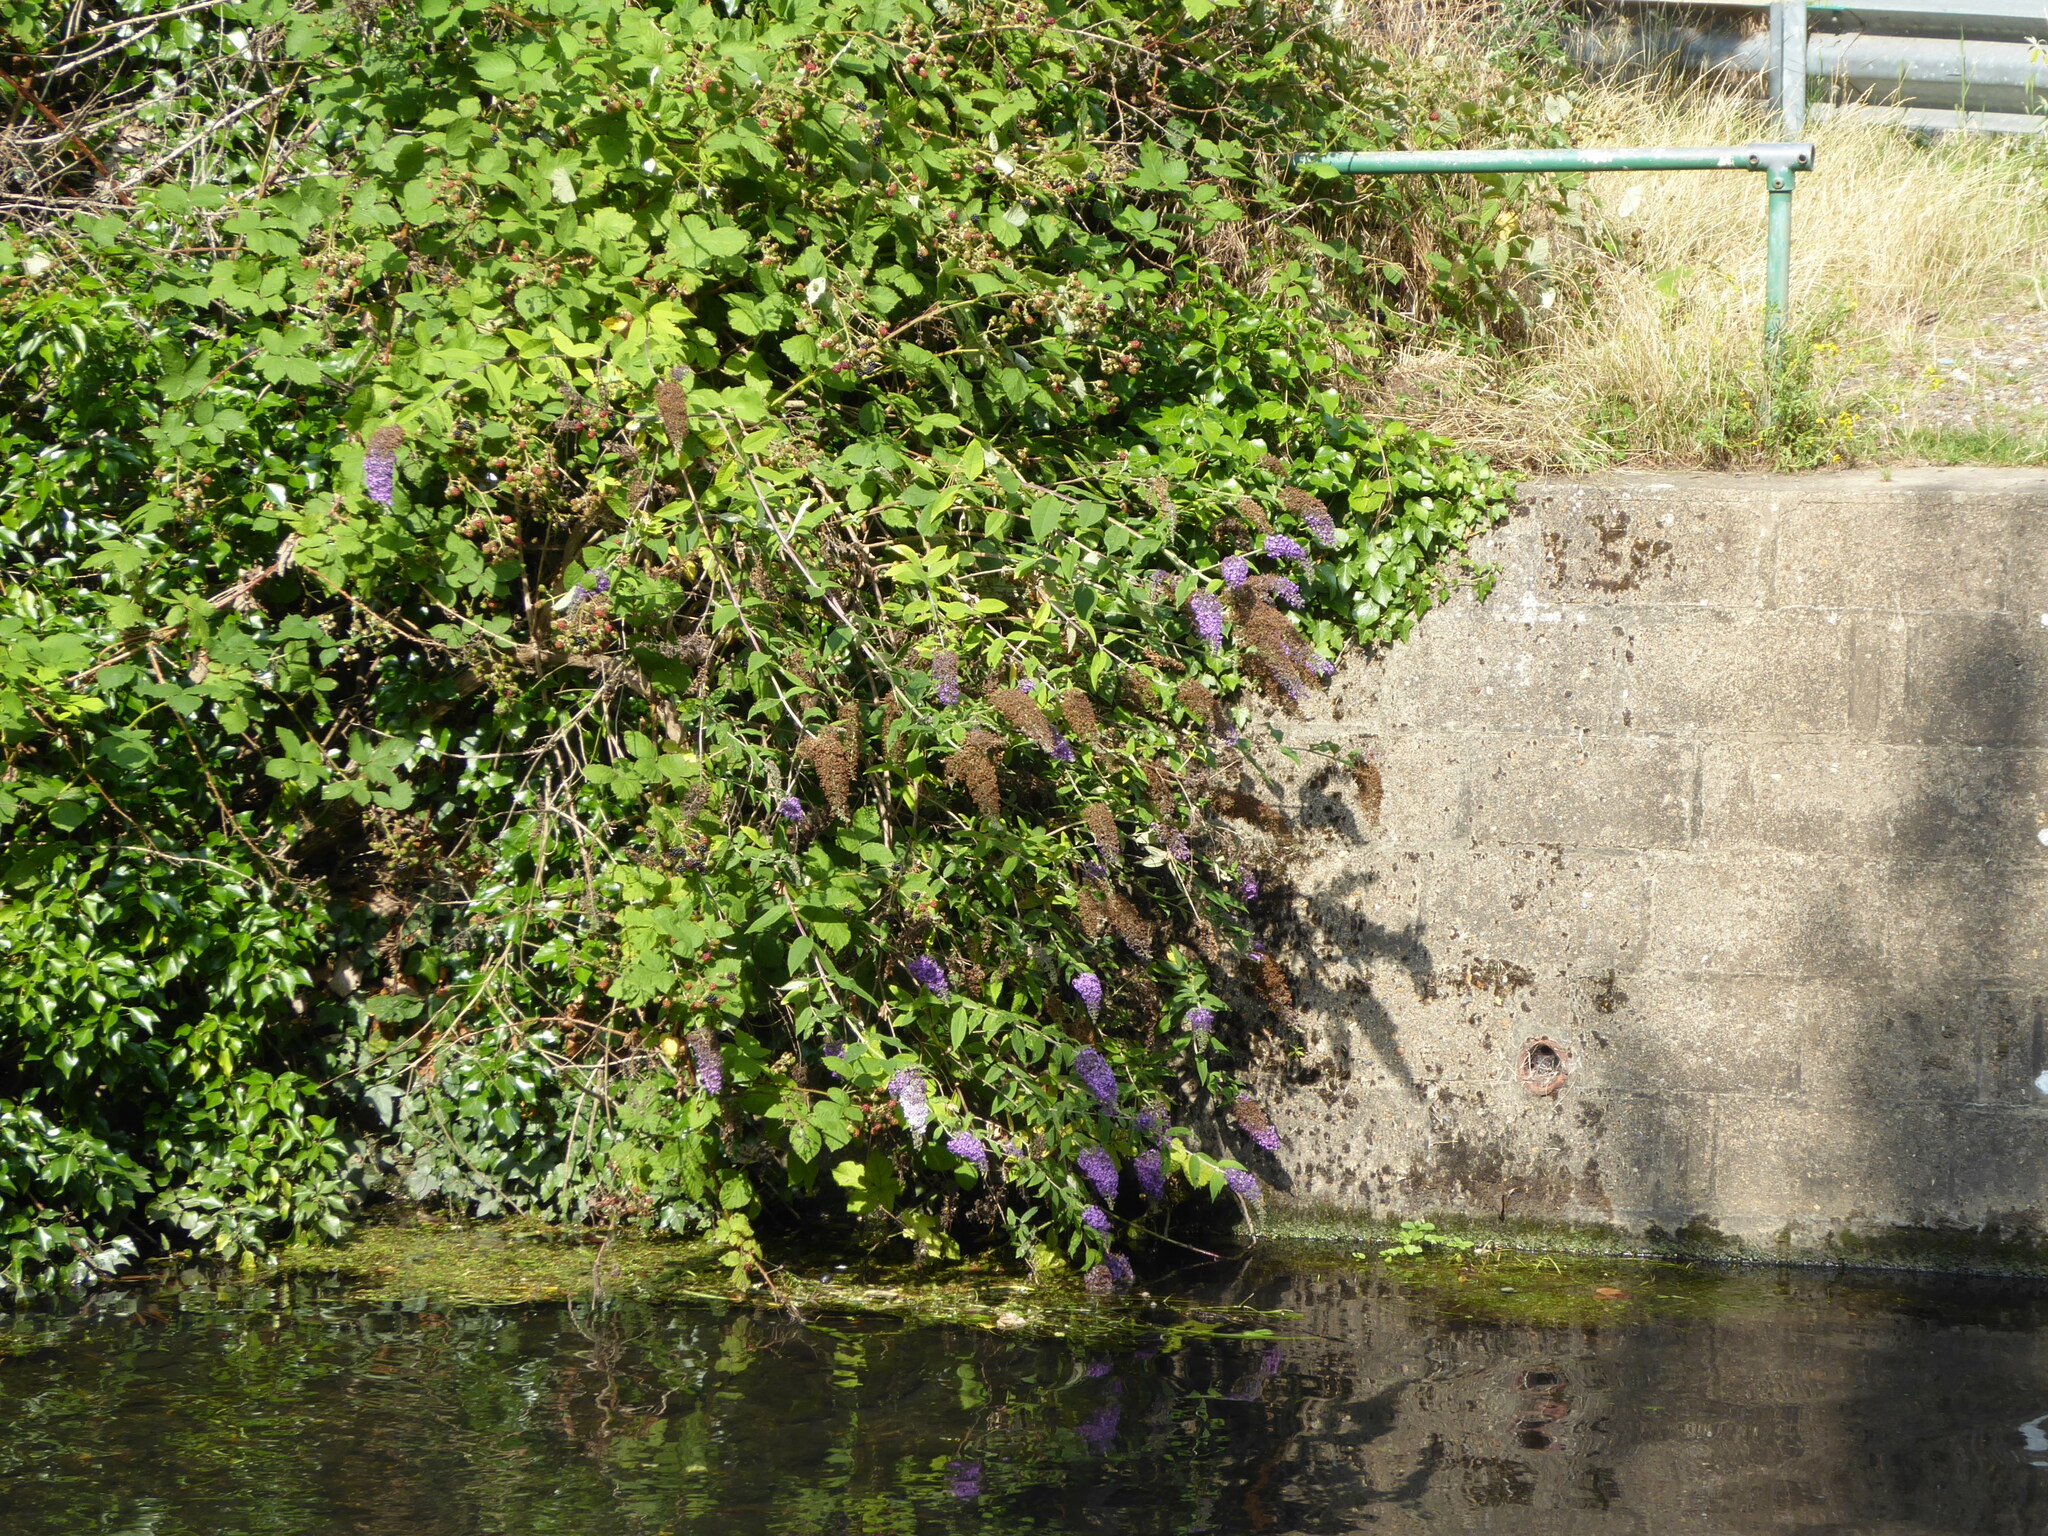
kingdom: Plantae
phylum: Tracheophyta
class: Magnoliopsida
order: Lamiales
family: Scrophulariaceae
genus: Buddleja
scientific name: Buddleja davidii
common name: Butterfly-bush
